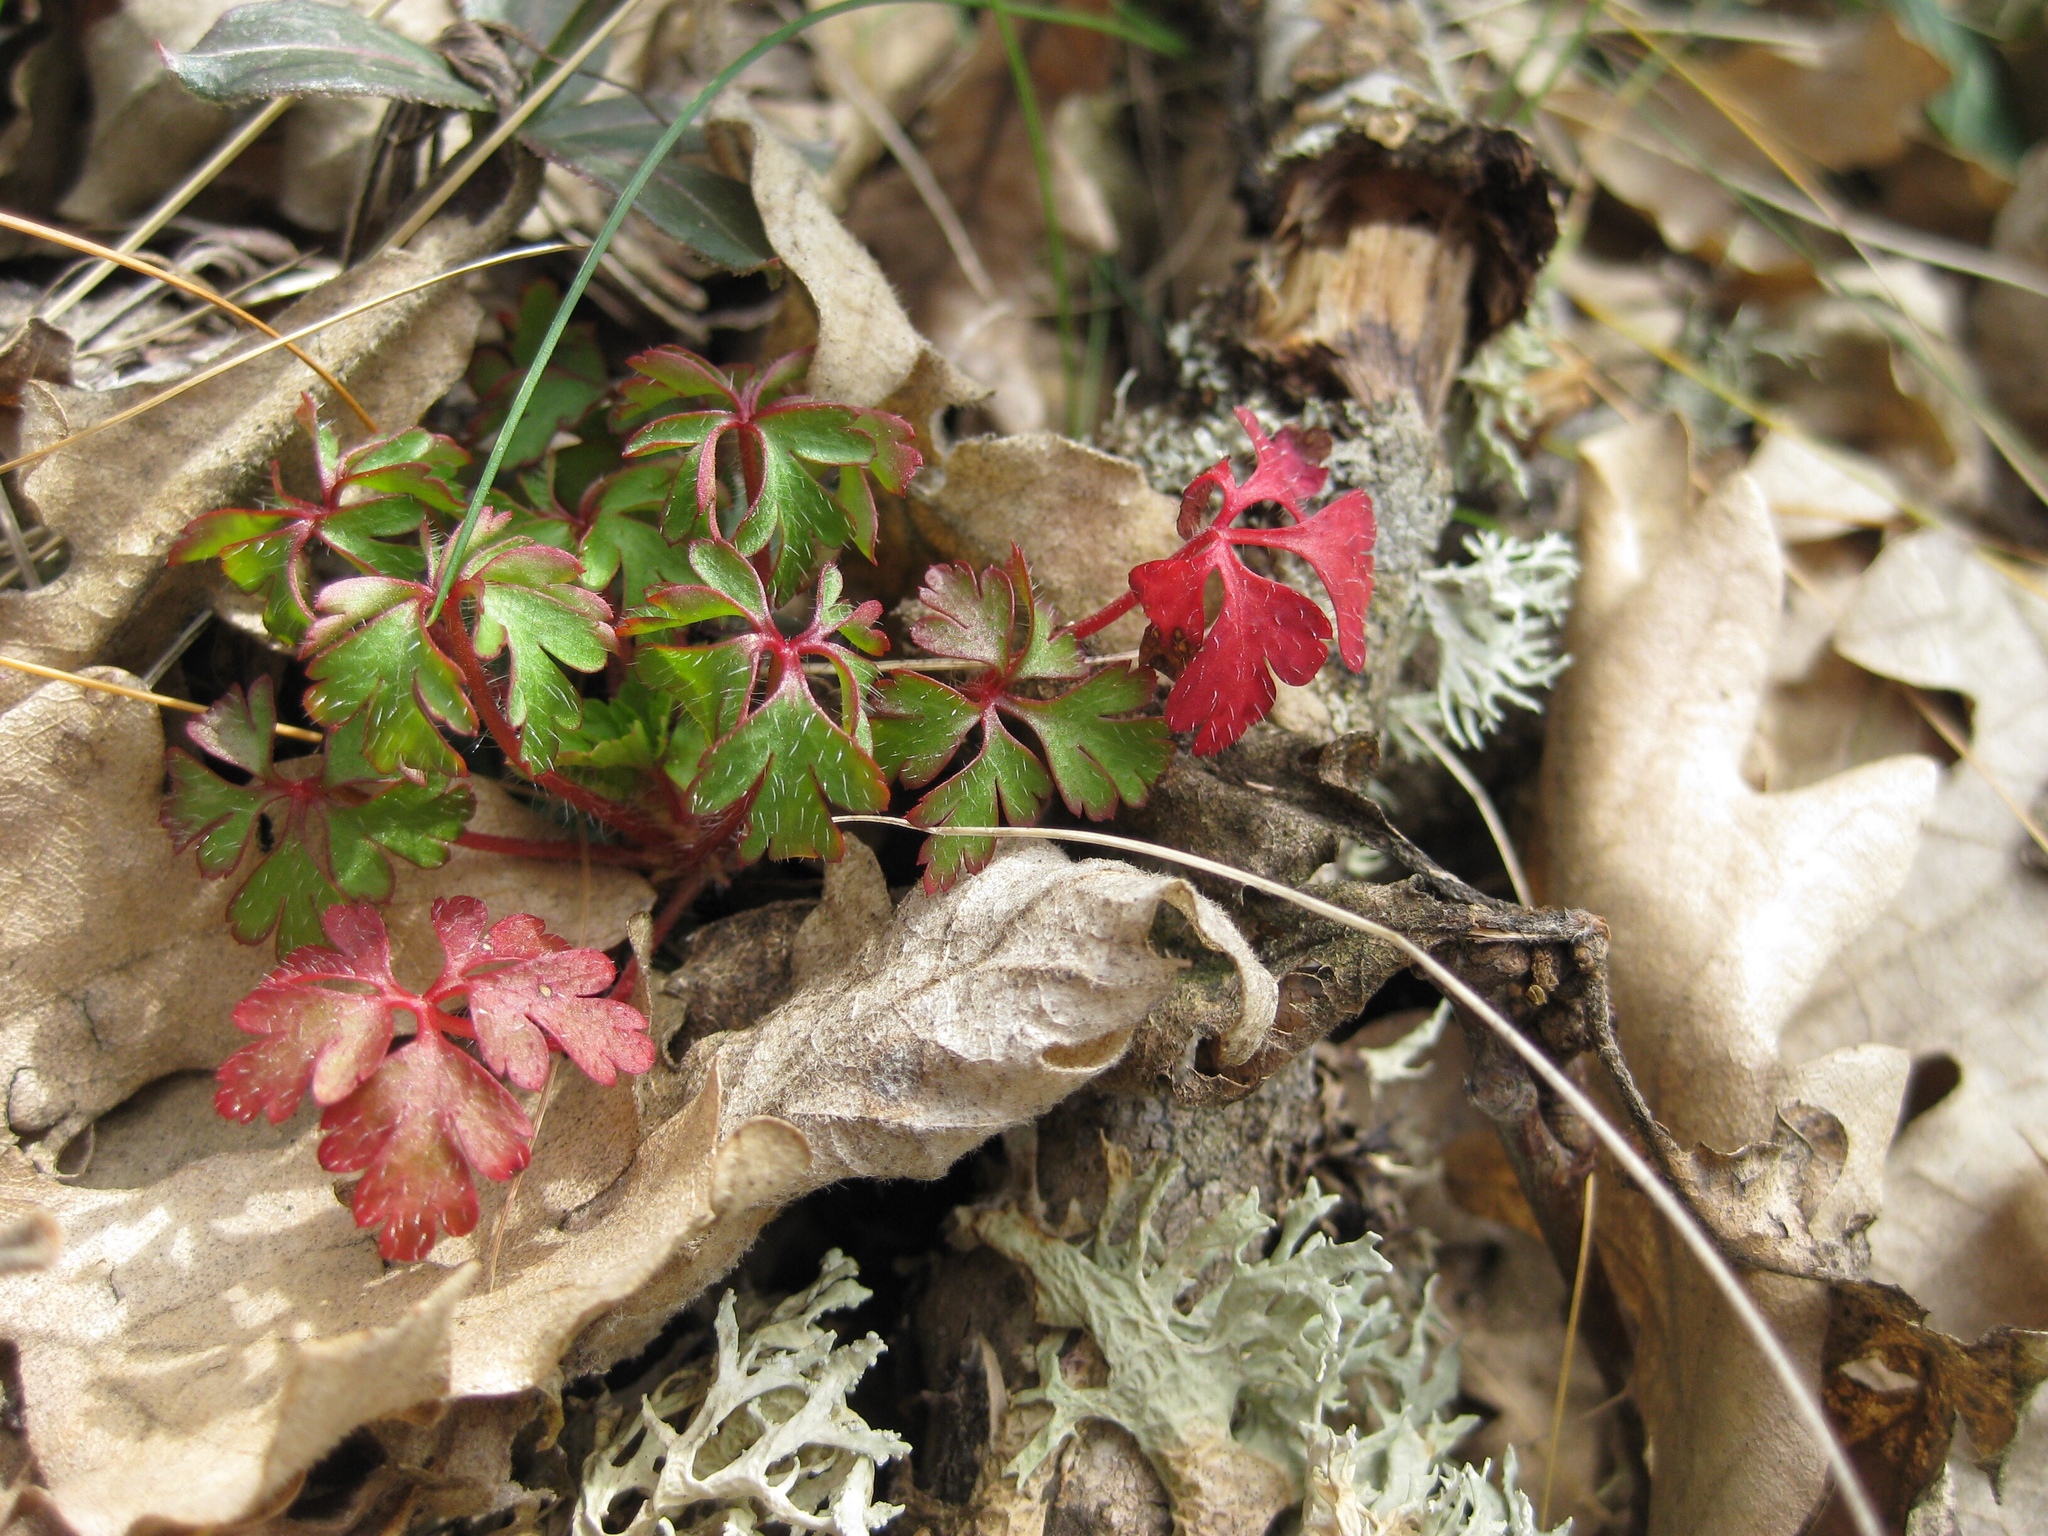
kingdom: Plantae
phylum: Tracheophyta
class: Magnoliopsida
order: Geraniales
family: Geraniaceae
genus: Geranium
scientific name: Geranium robertianum
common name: Herb-robert
